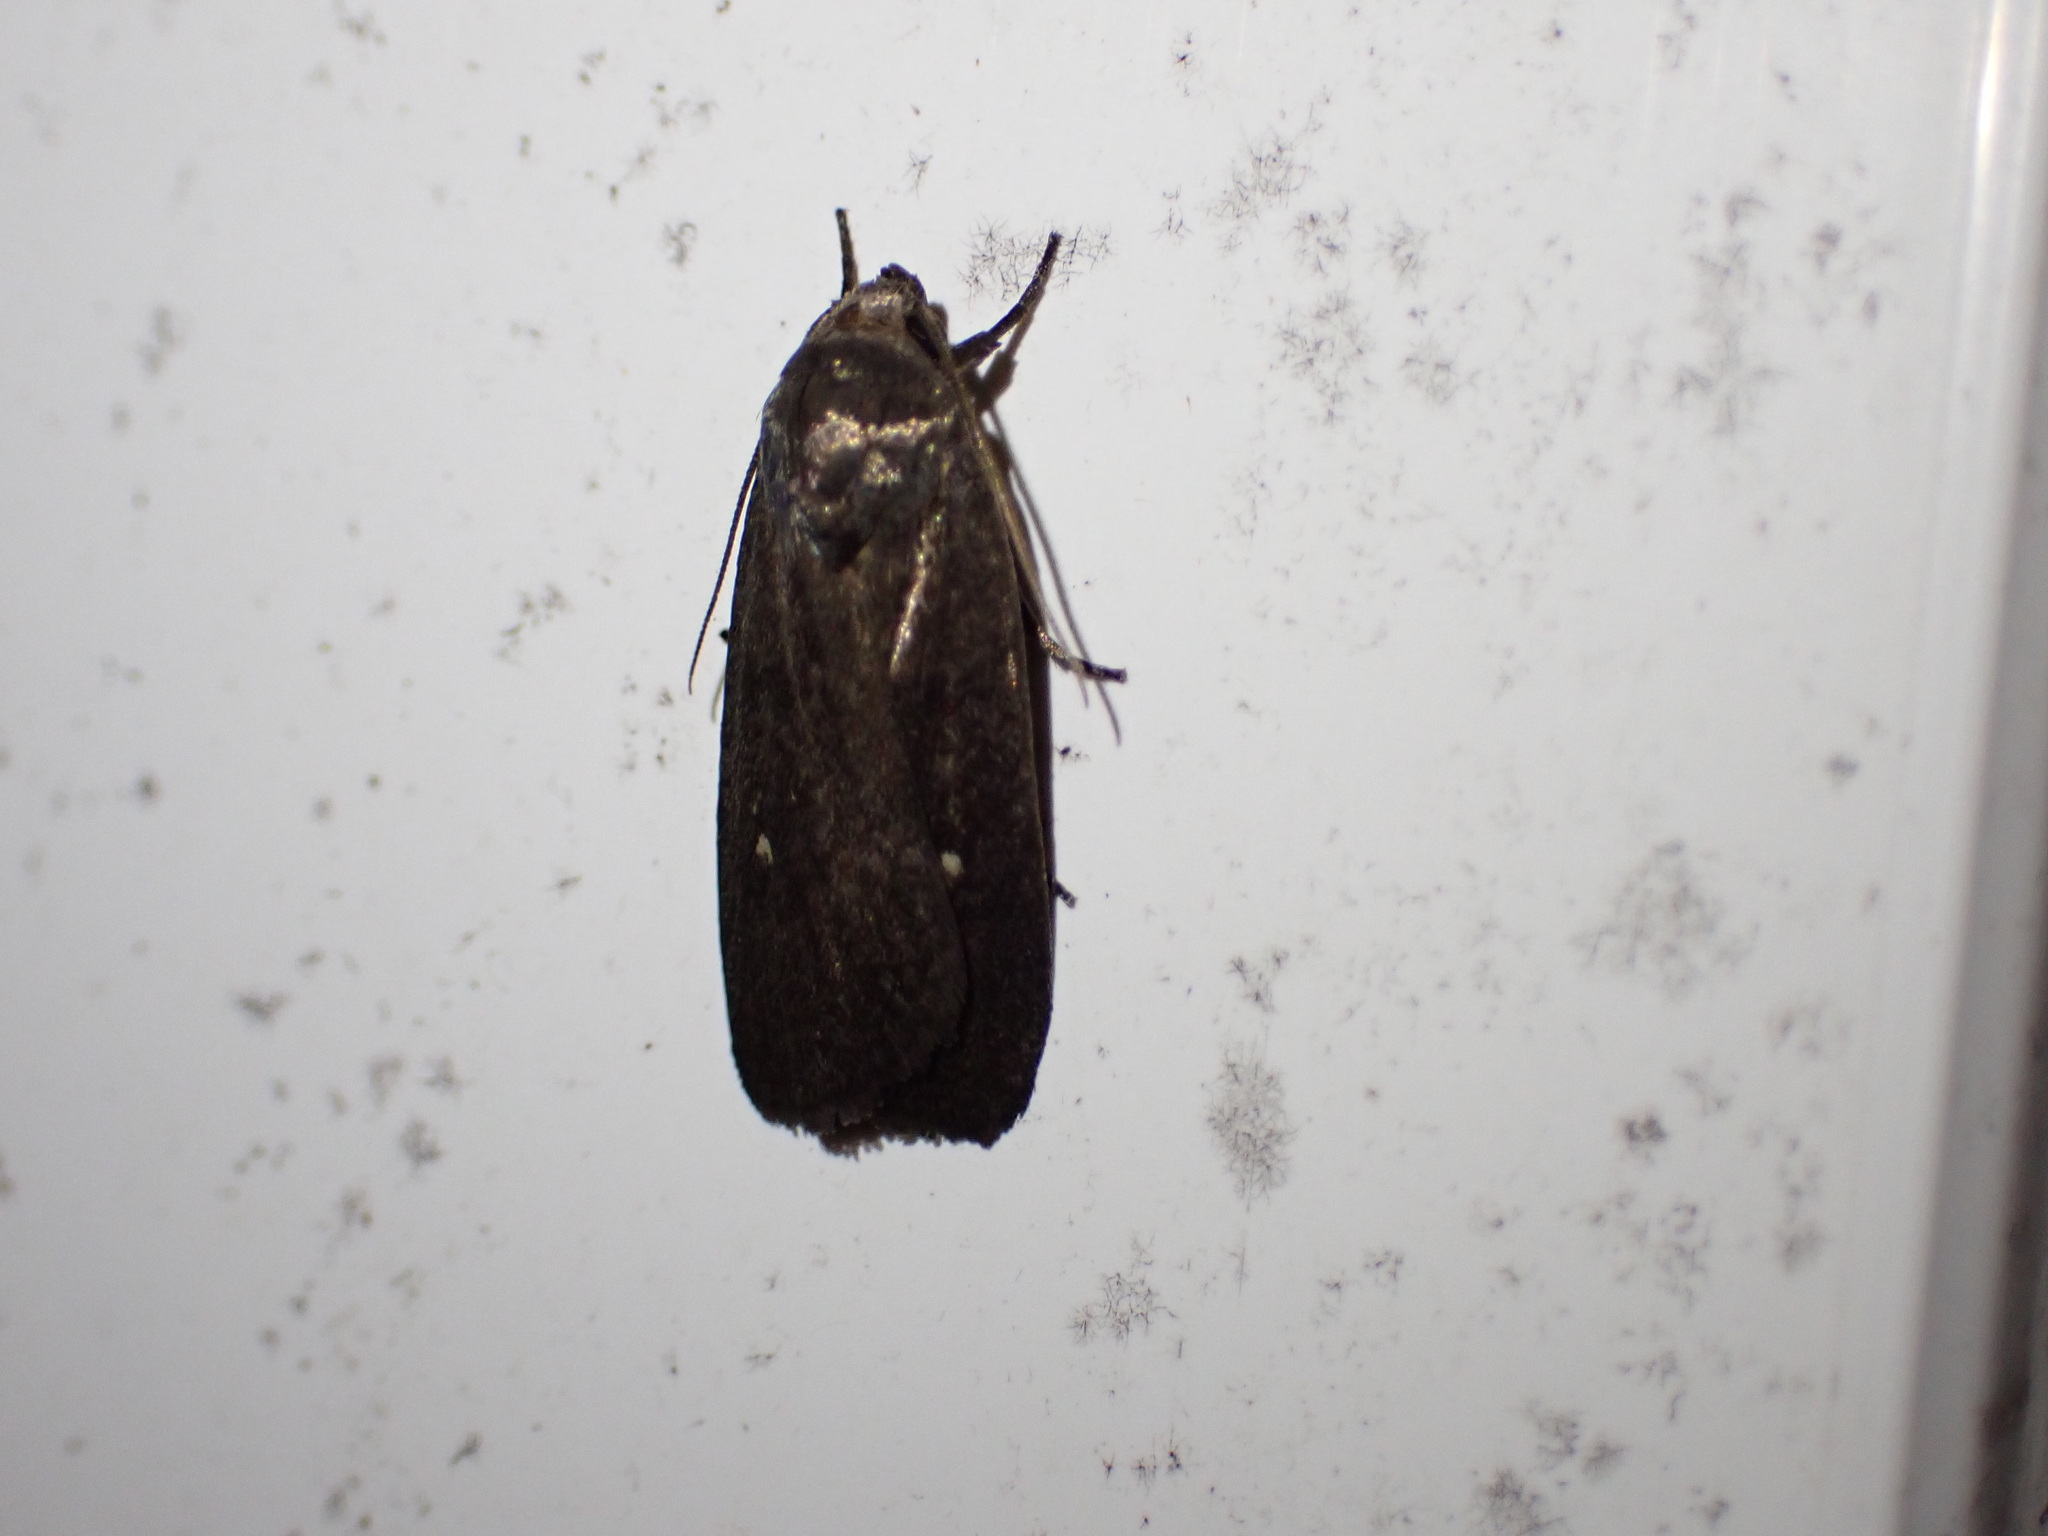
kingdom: Animalia
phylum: Arthropoda
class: Insecta
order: Lepidoptera
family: Noctuidae
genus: Proxenus
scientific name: Proxenus miranda
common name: Miranda moth
